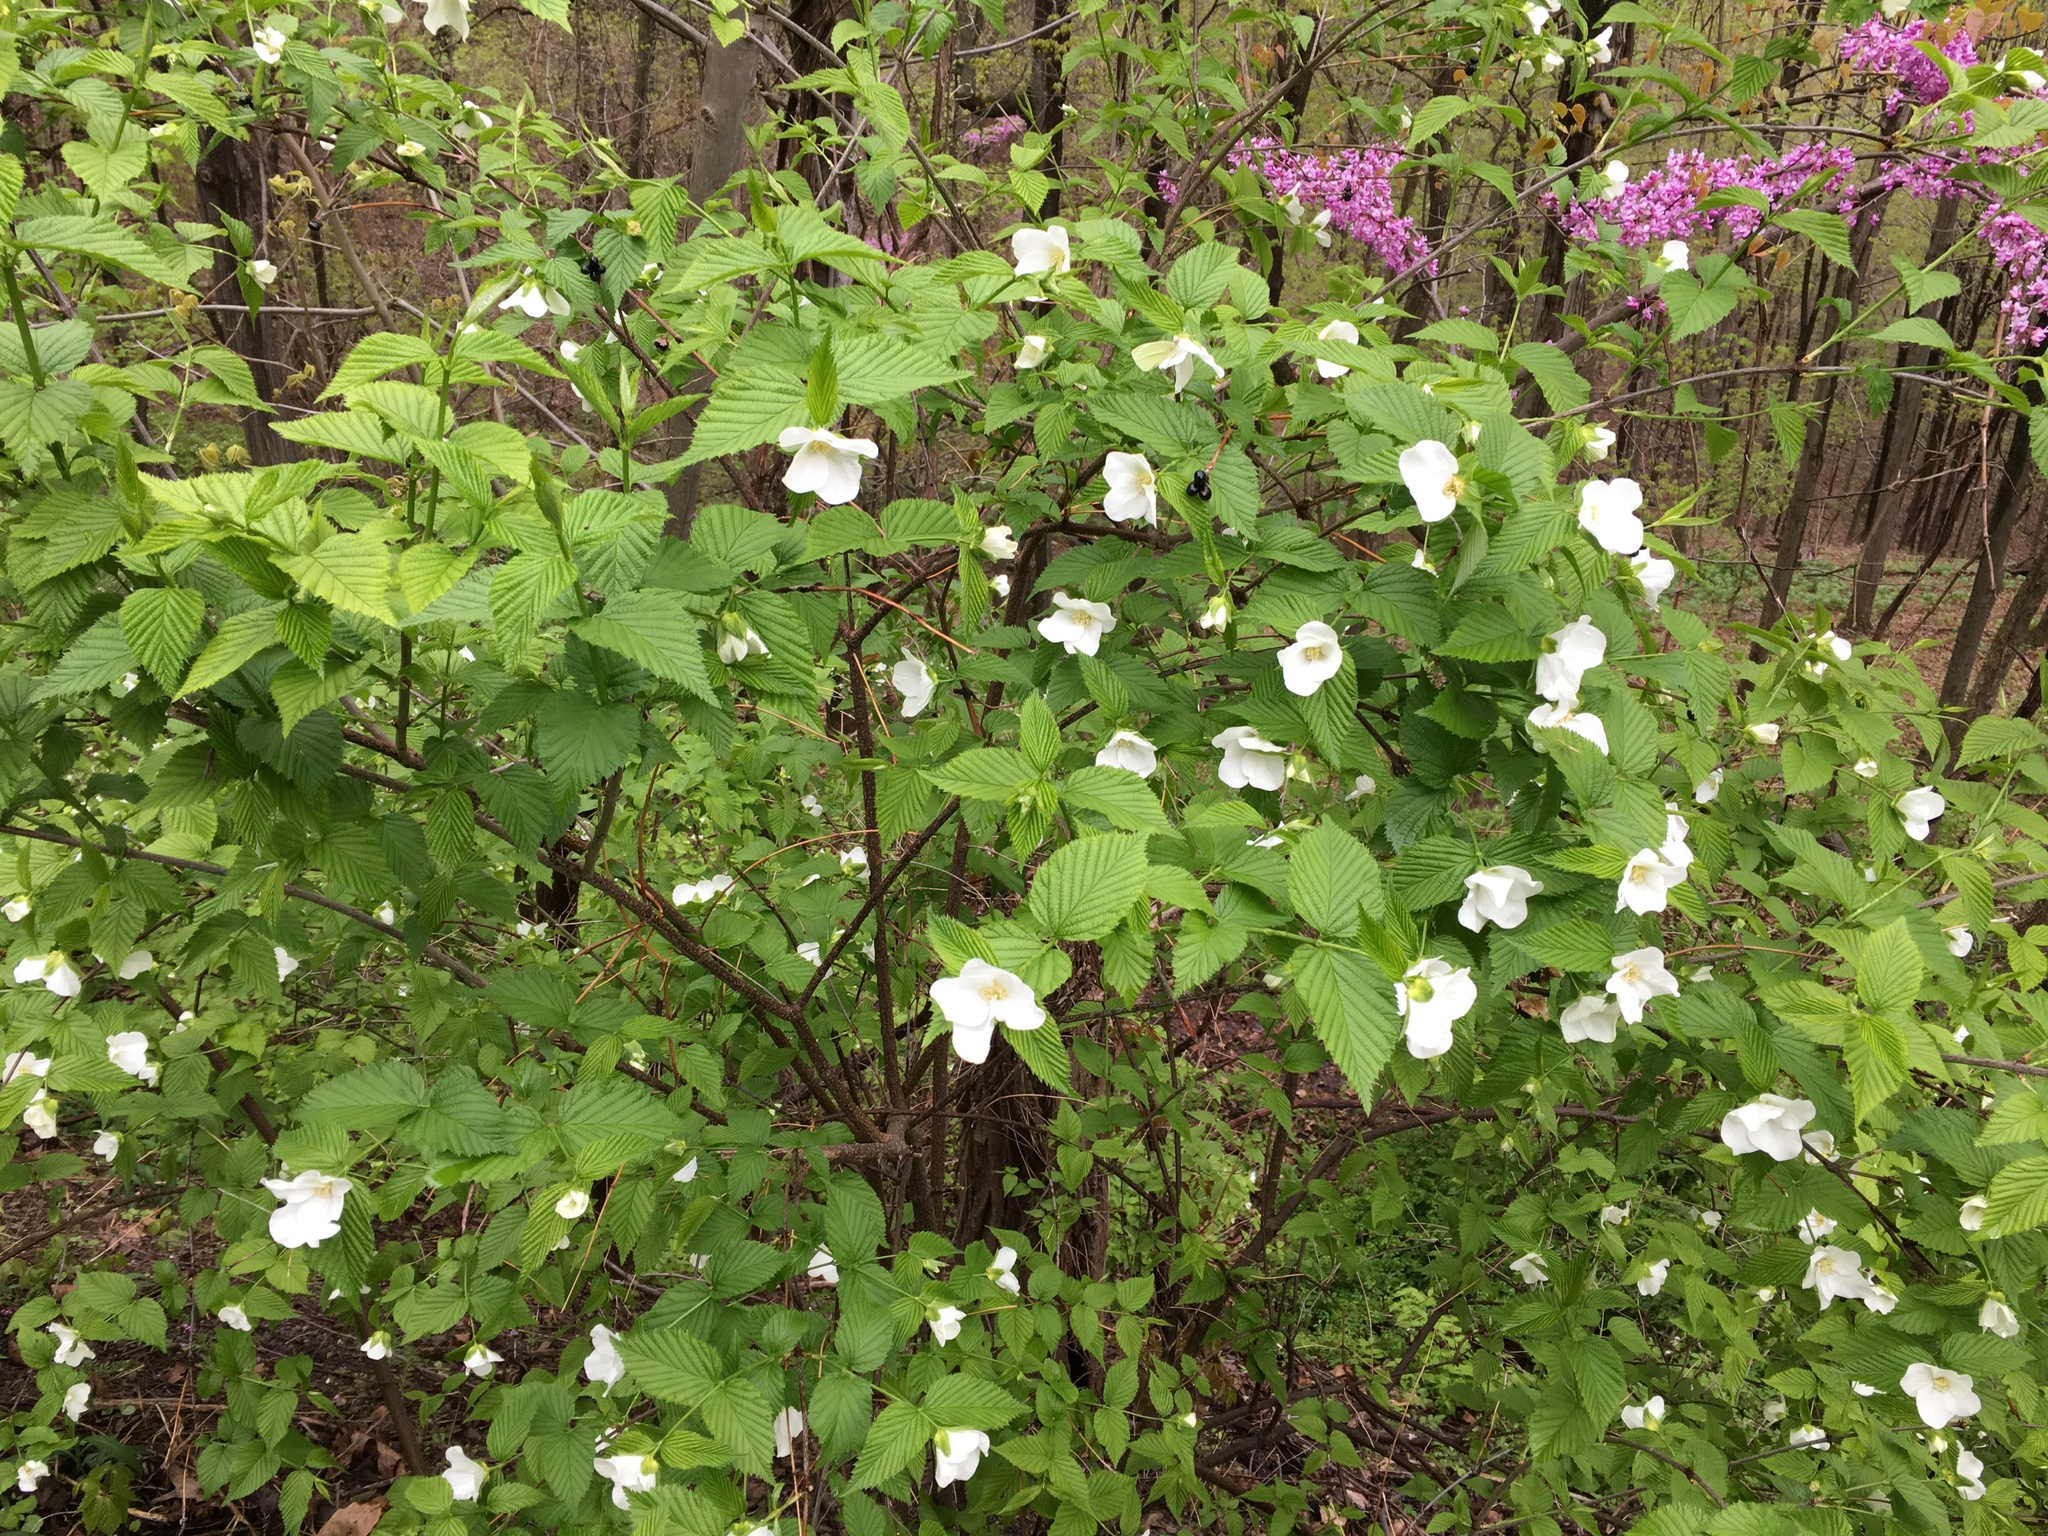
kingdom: Plantae
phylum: Tracheophyta
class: Magnoliopsida
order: Rosales
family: Rosaceae
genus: Rhodotypos
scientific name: Rhodotypos scandens
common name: Jetbead
